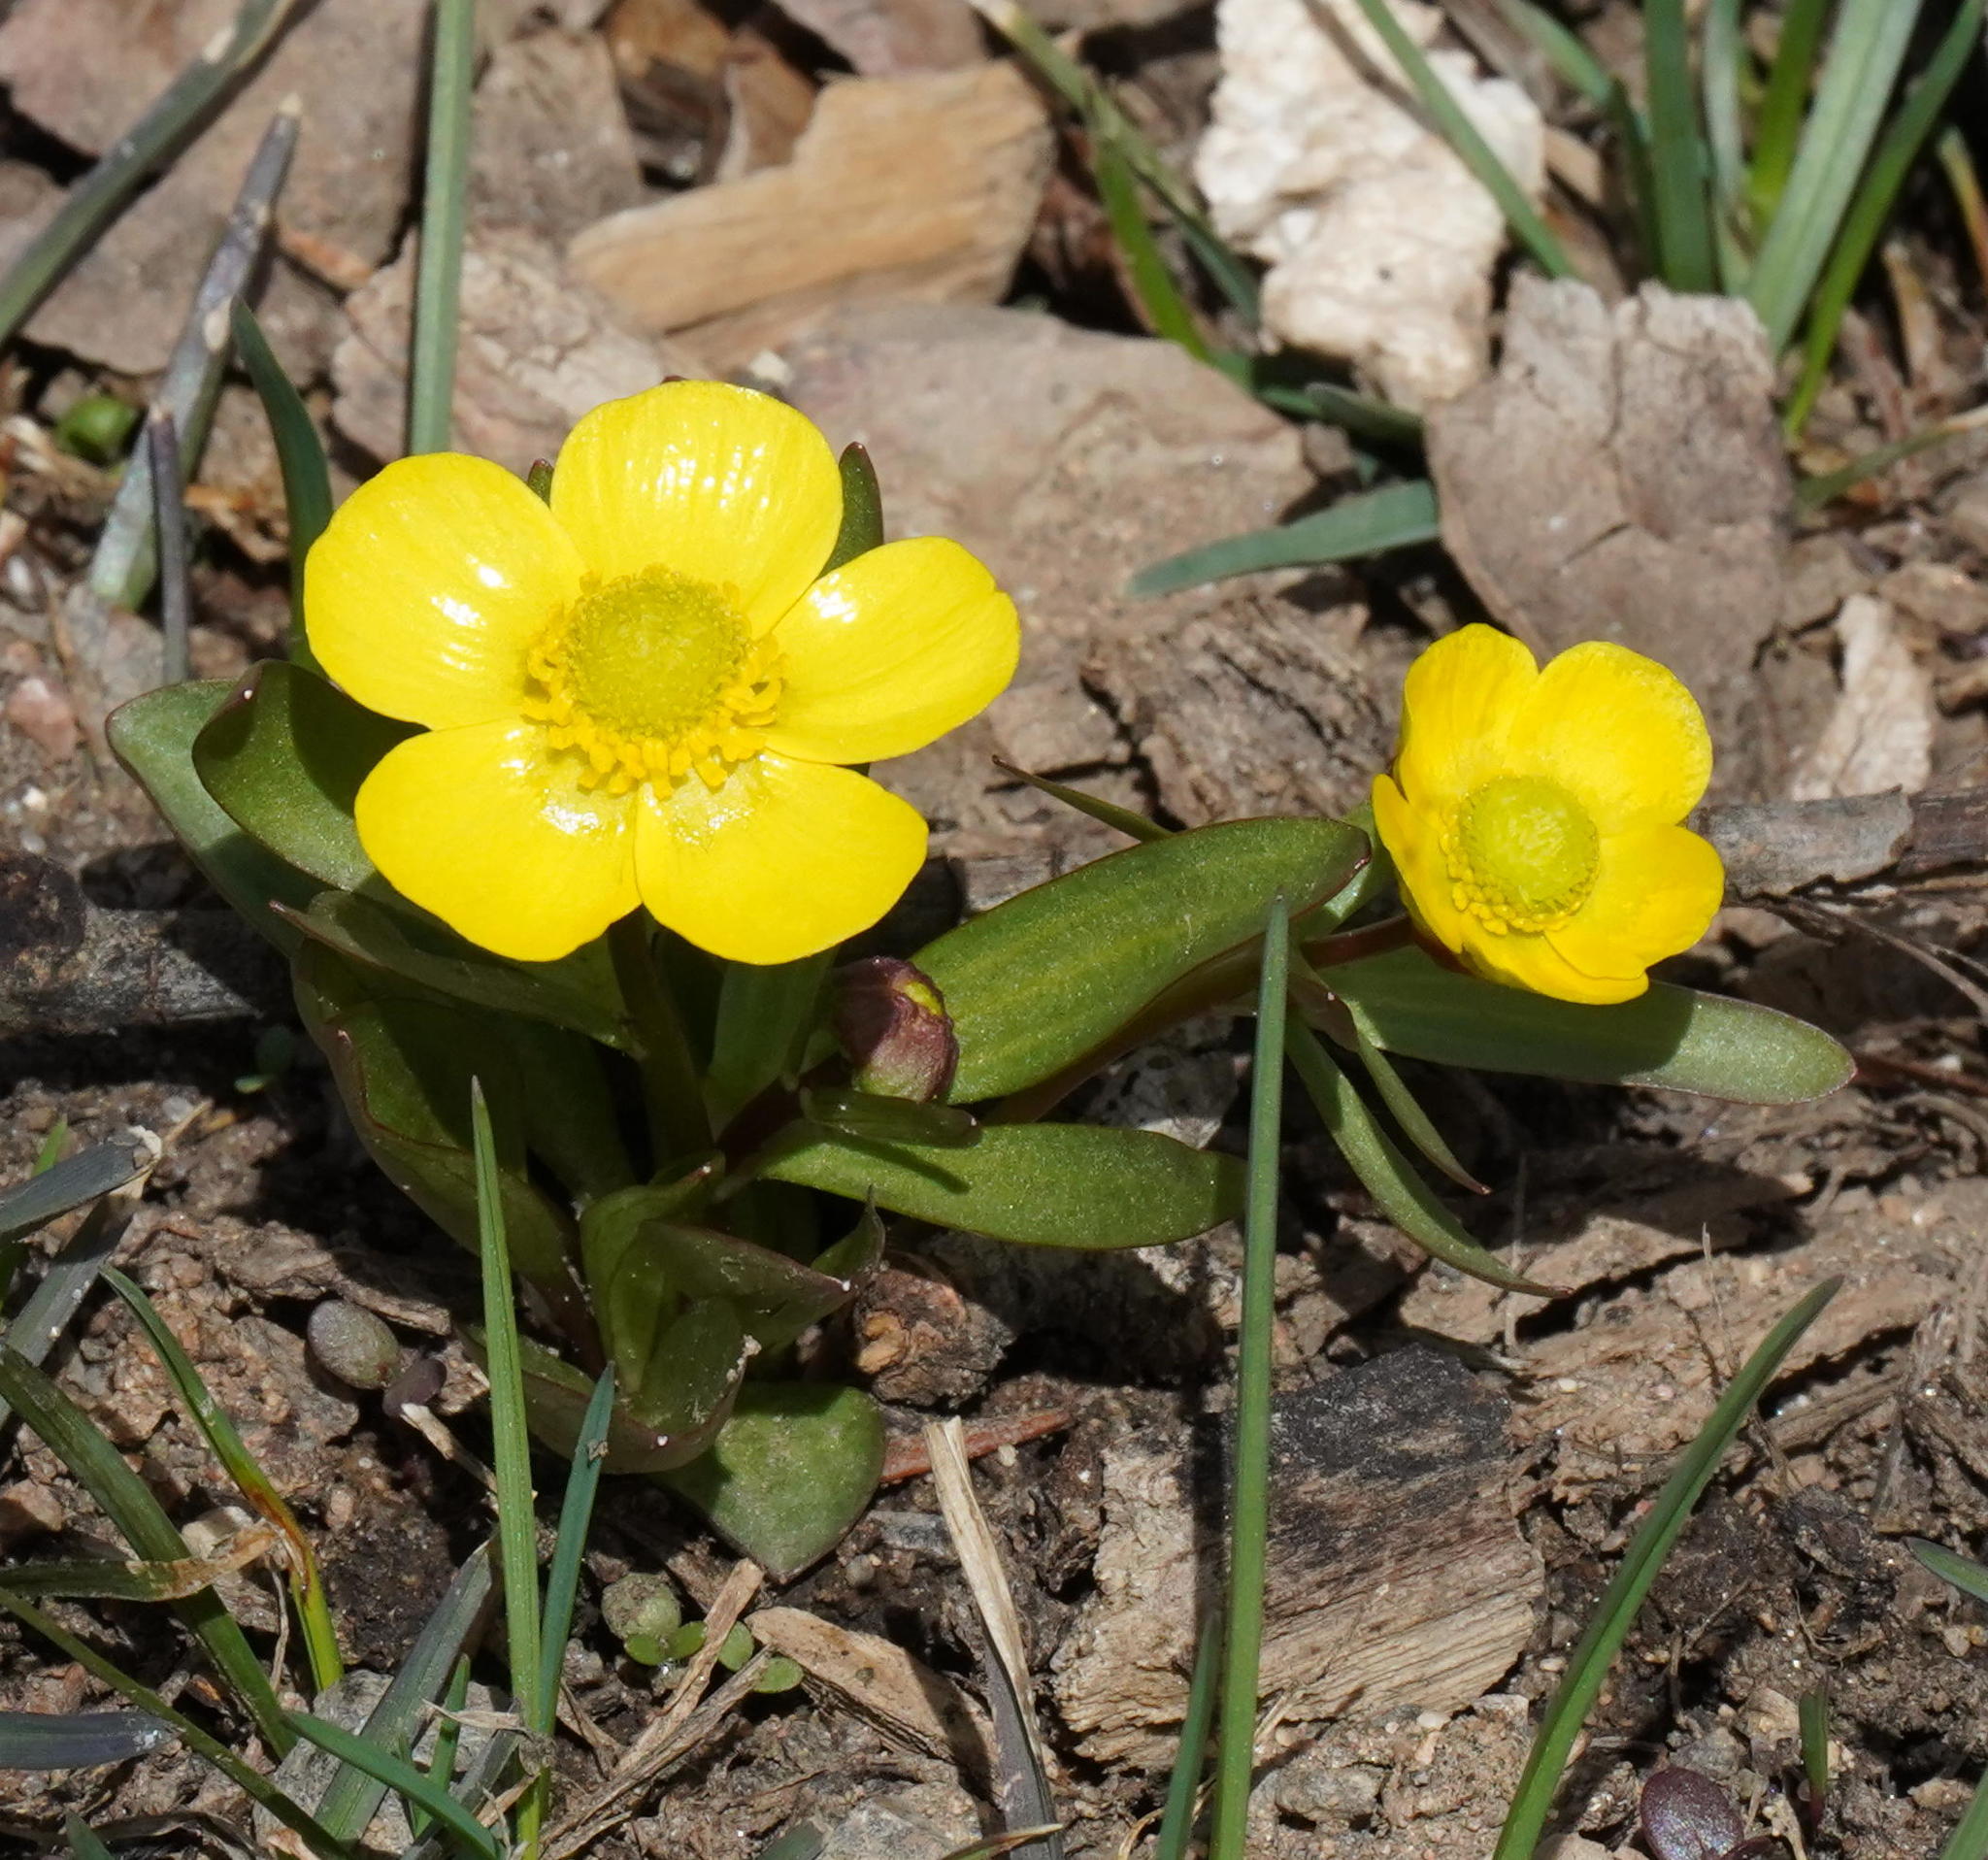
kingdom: Plantae
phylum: Tracheophyta
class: Magnoliopsida
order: Ranunculales
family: Ranunculaceae
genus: Ranunculus
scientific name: Ranunculus glaberrimus
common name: Sagebrush buttercup
